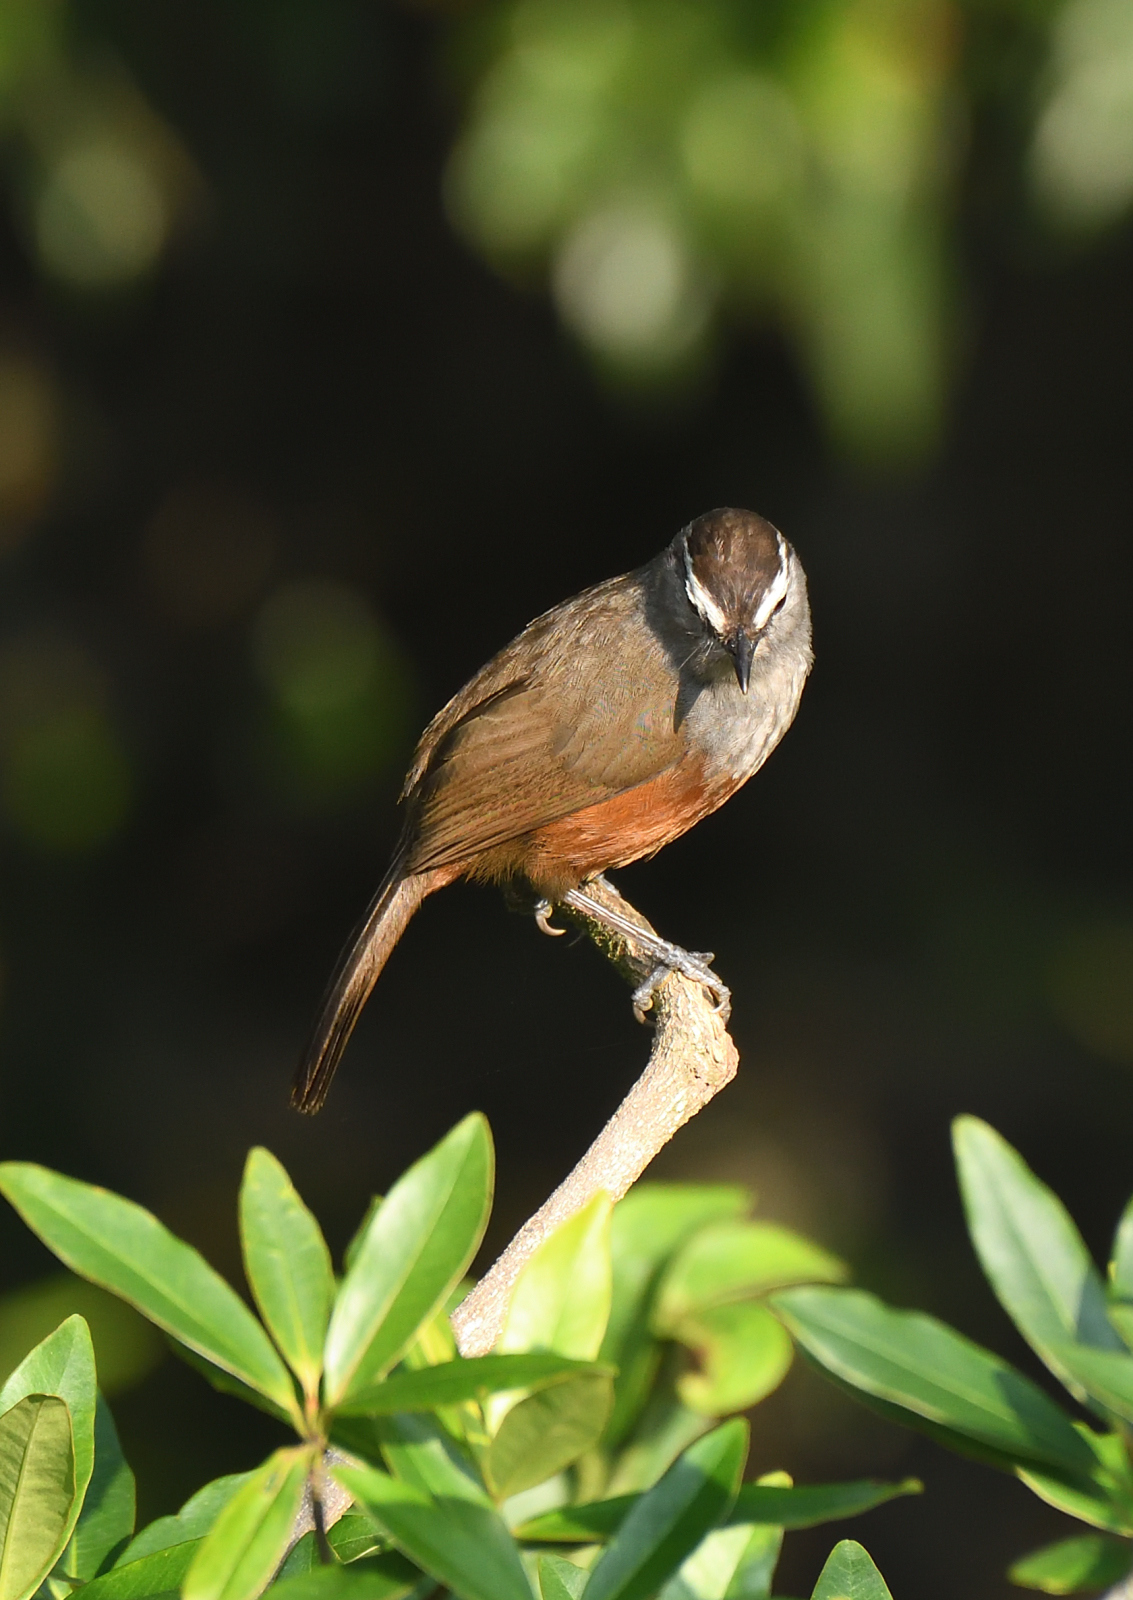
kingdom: Animalia
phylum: Chordata
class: Aves
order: Passeriformes
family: Leiothrichidae
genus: Trochalopteron
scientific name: Trochalopteron fairbanki
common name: Kerala laughingthrush
